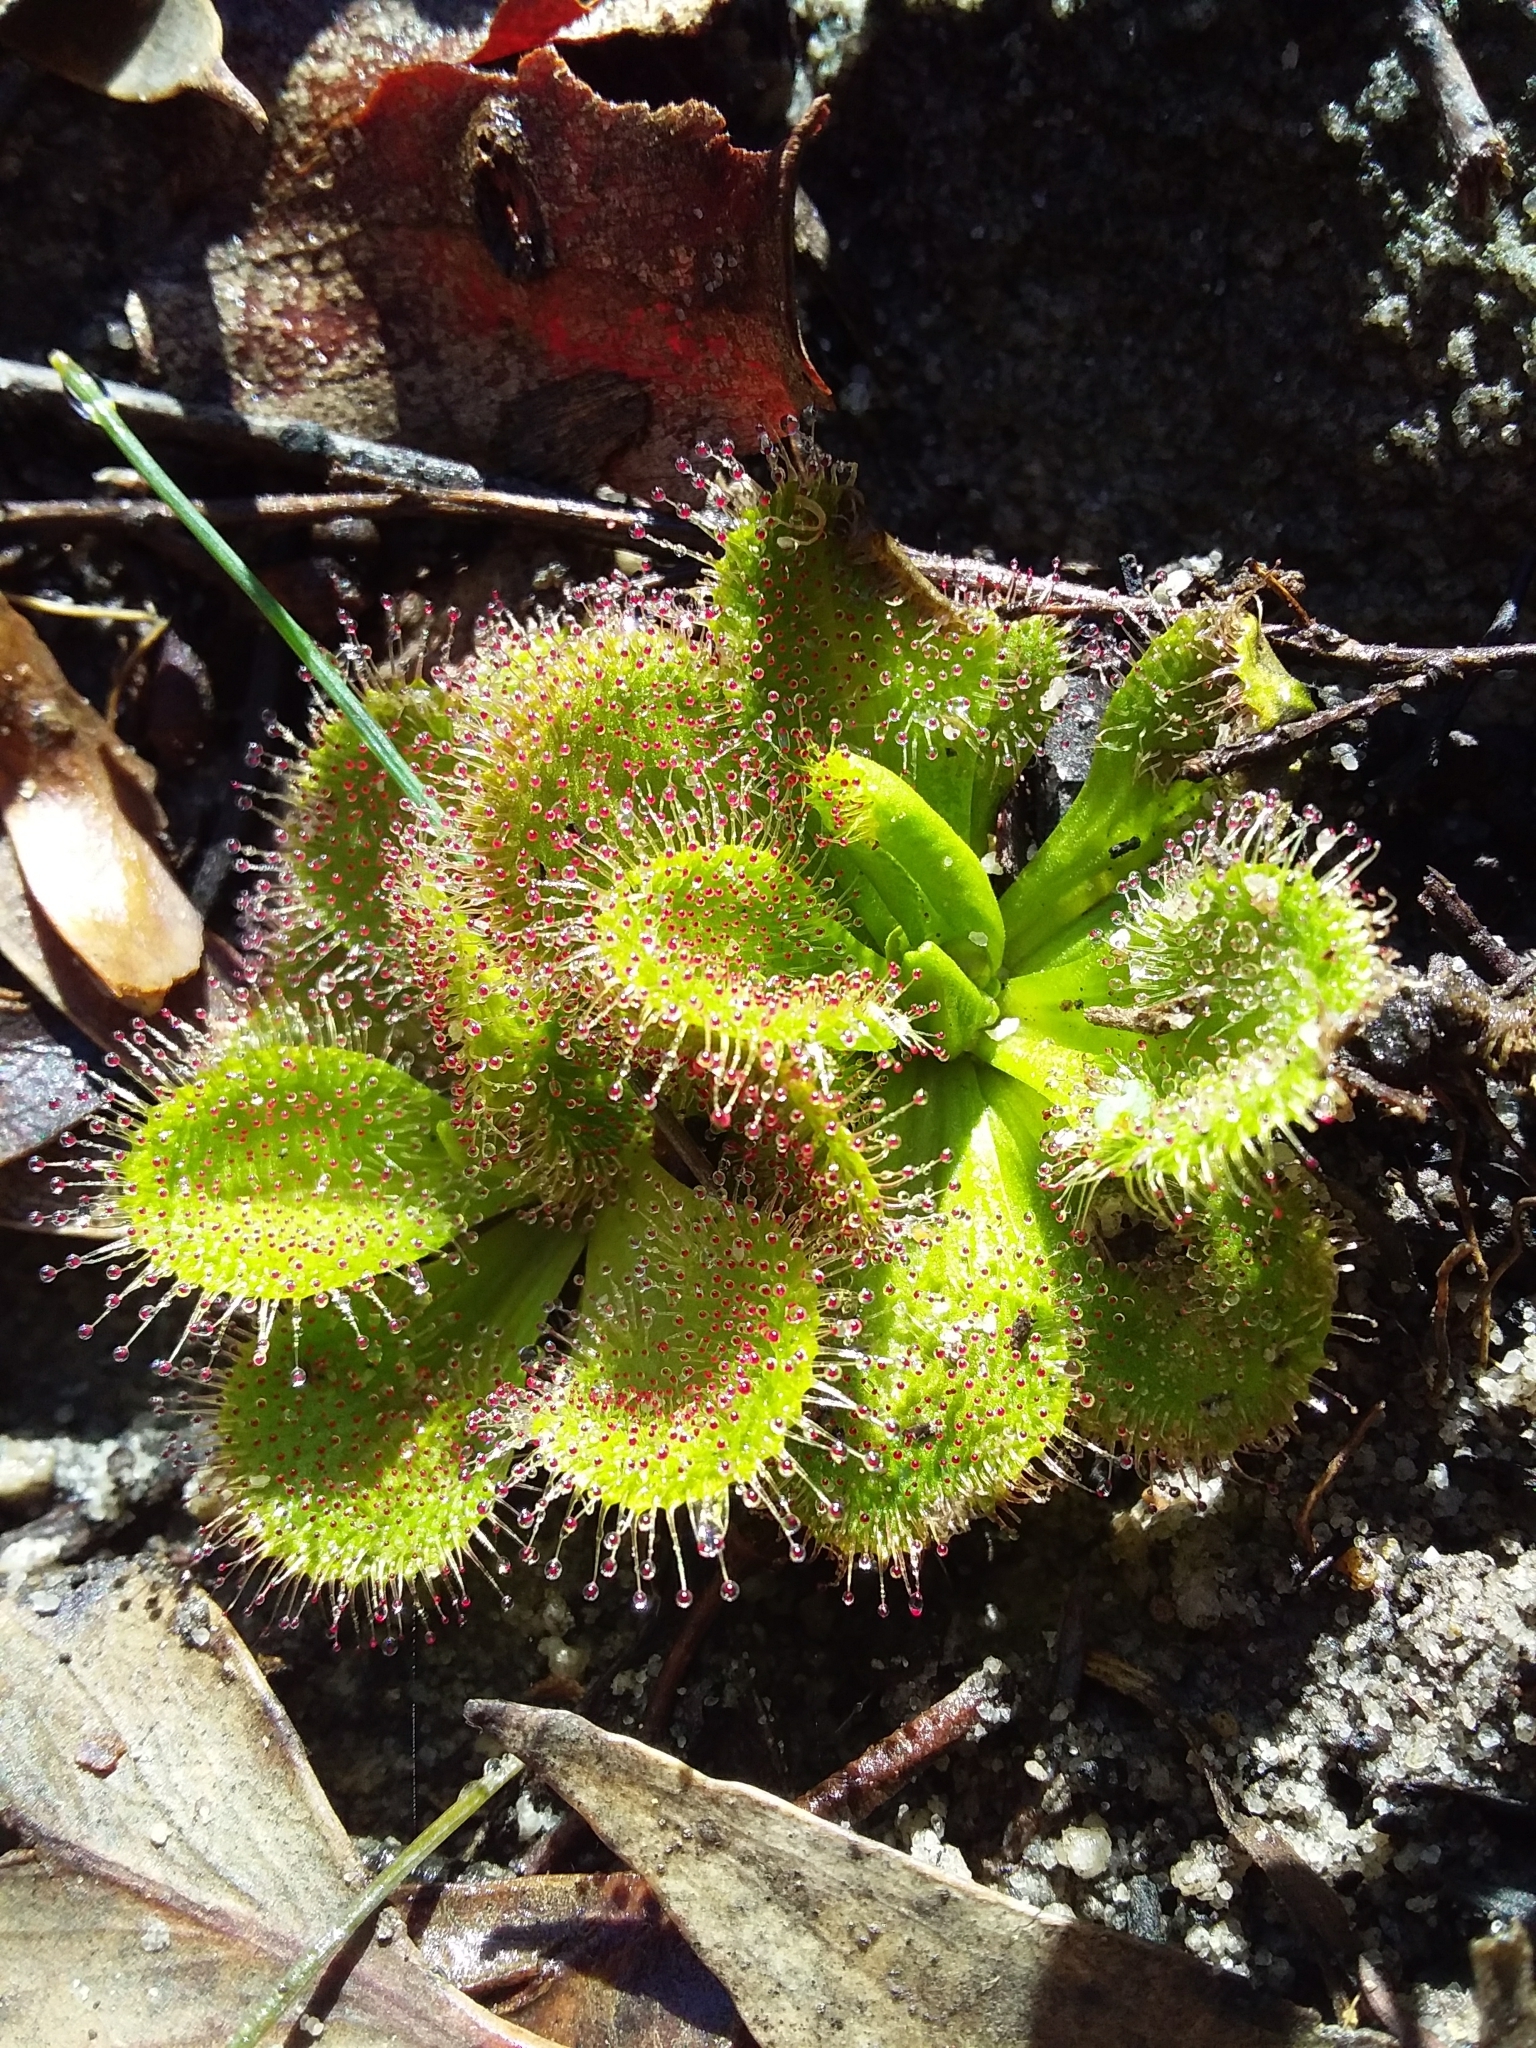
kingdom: Plantae
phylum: Tracheophyta
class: Magnoliopsida
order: Caryophyllales
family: Droseraceae
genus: Drosera
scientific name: Drosera whittakeri
